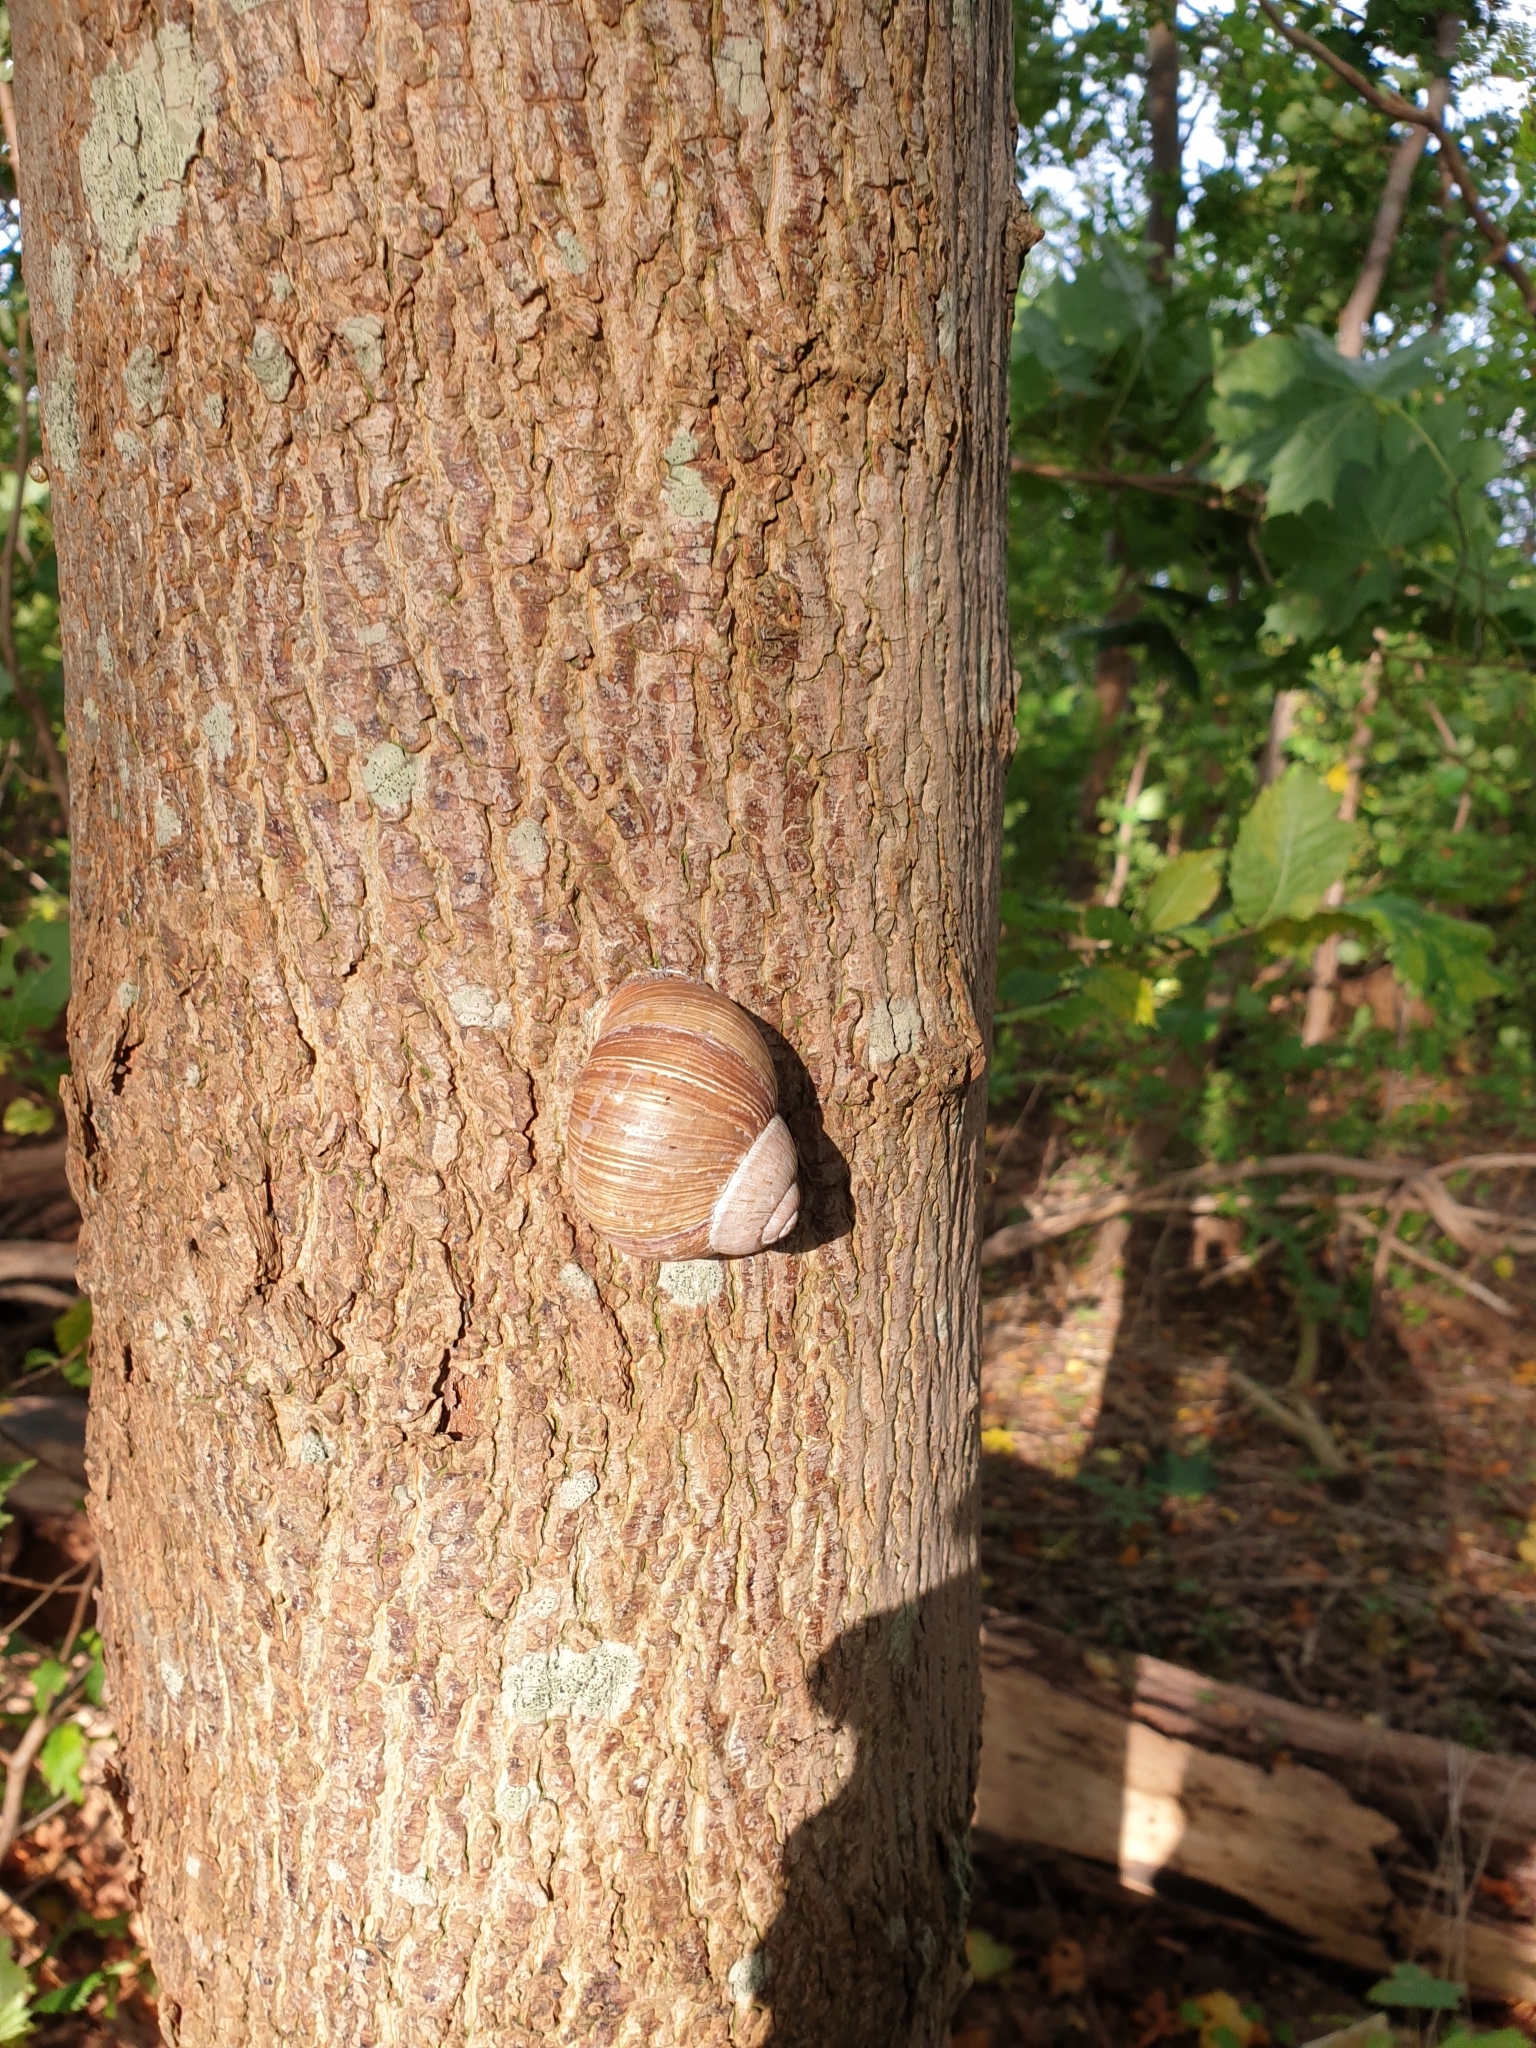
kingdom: Animalia
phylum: Mollusca
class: Gastropoda
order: Stylommatophora
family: Helicidae
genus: Helix
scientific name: Helix pomatia
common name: Roman snail
